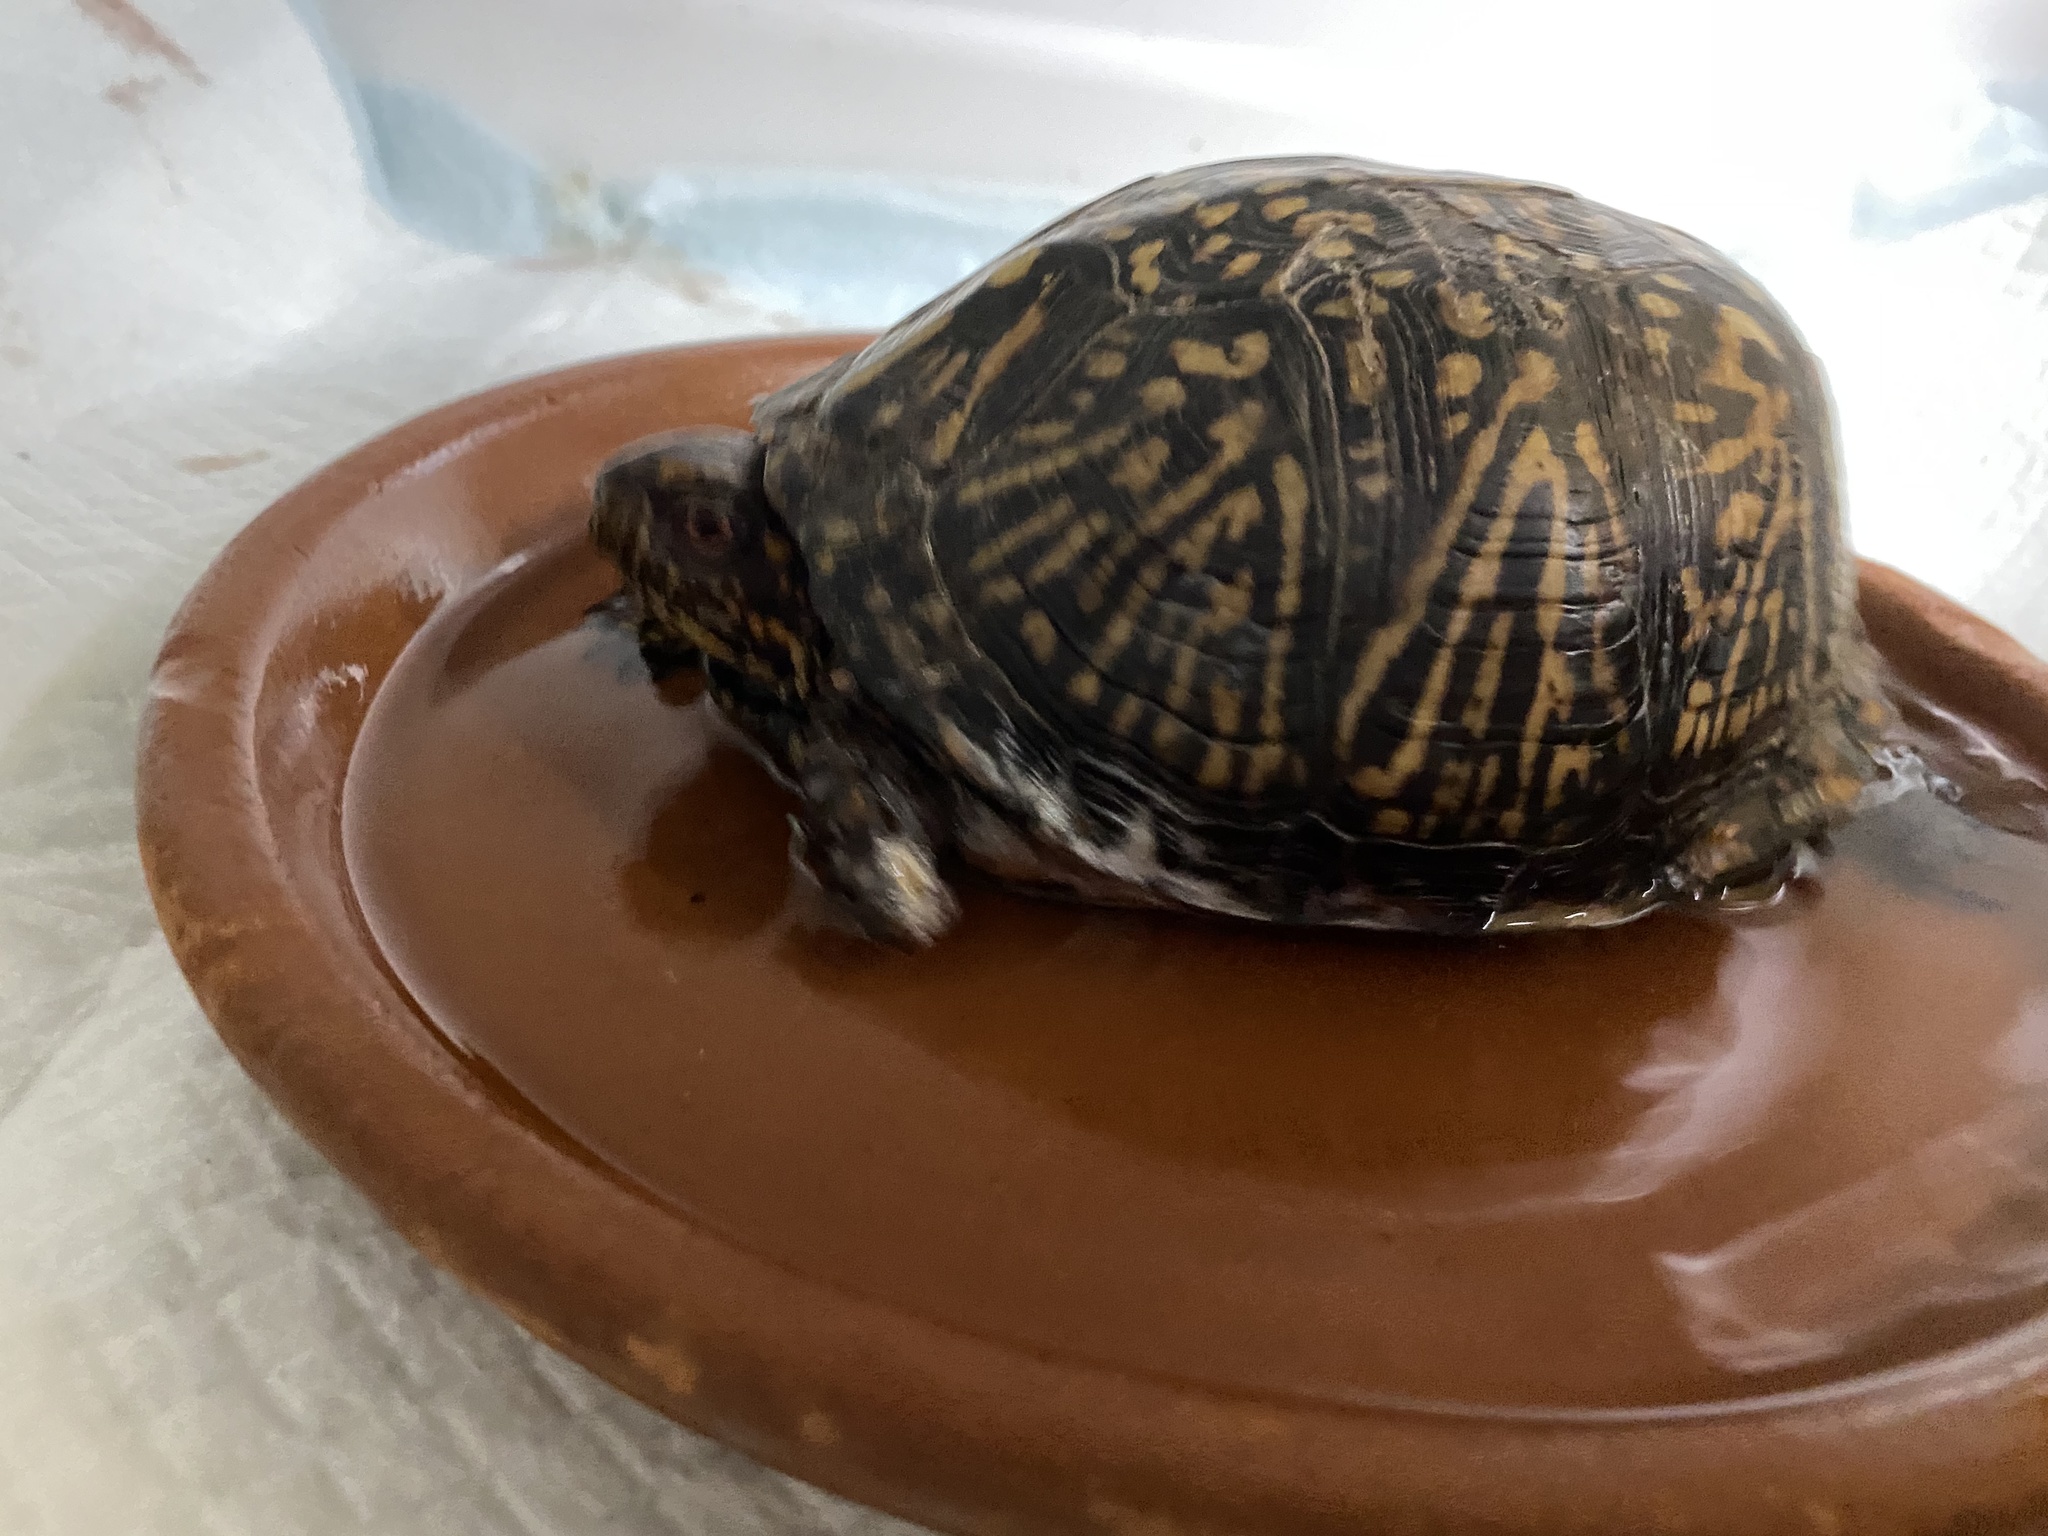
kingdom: Animalia
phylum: Chordata
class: Testudines
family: Emydidae
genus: Terrapene
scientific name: Terrapene carolina
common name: Common box turtle
